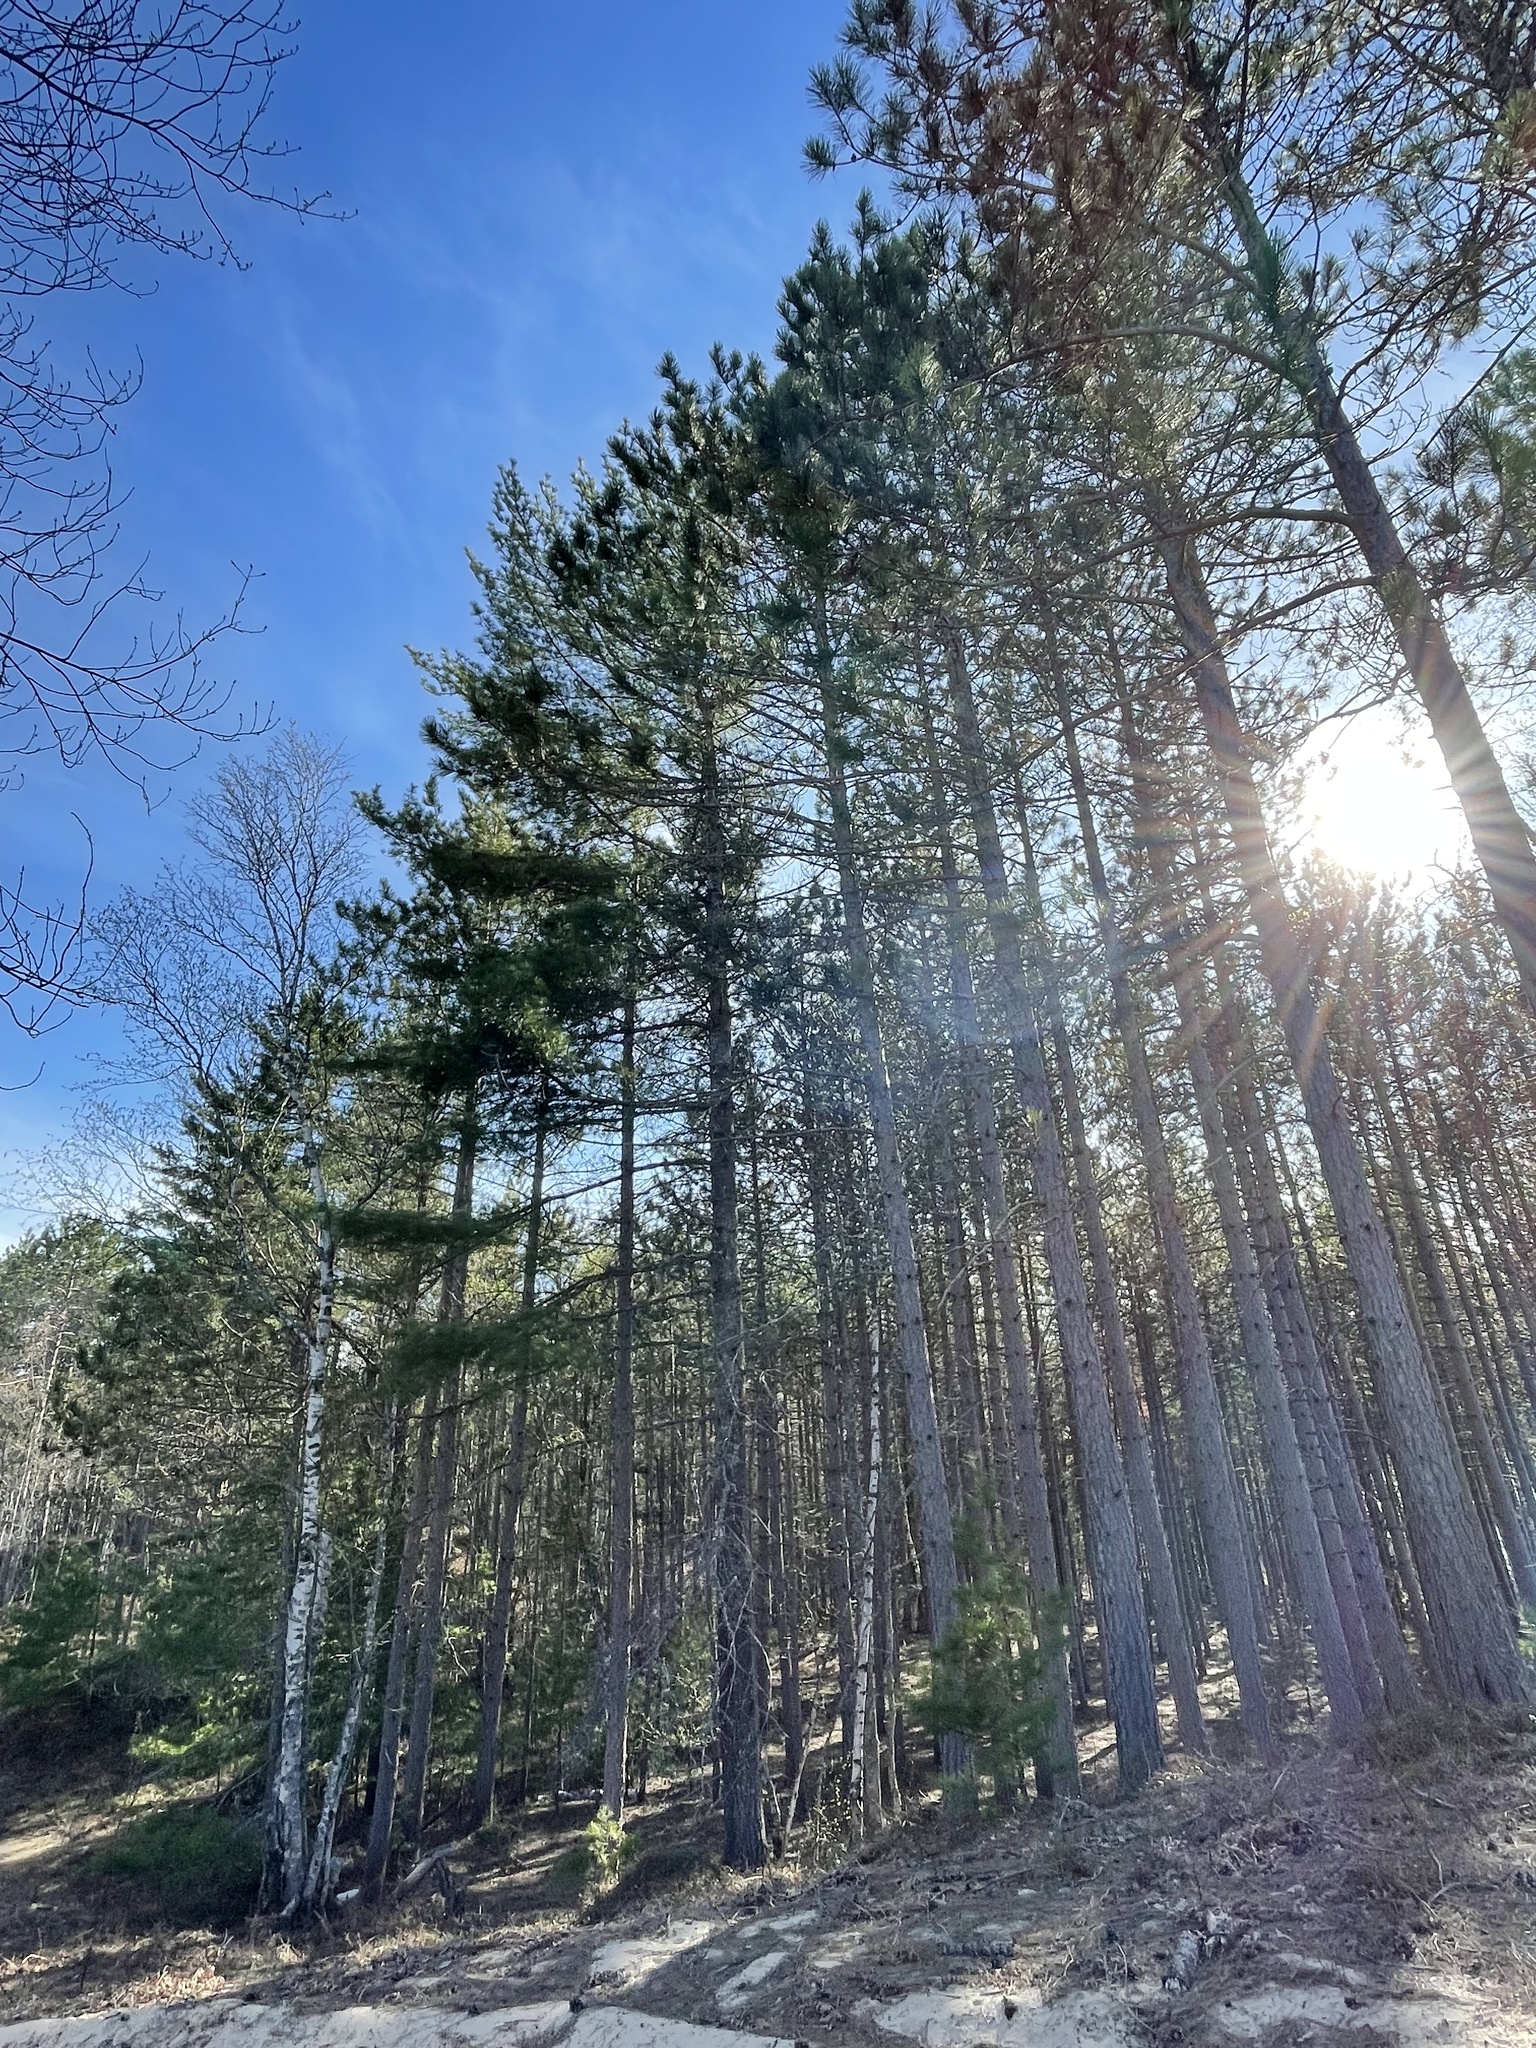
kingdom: Plantae
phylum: Tracheophyta
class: Pinopsida
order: Pinales
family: Pinaceae
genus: Pinus
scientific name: Pinus resinosa
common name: Norway pine
